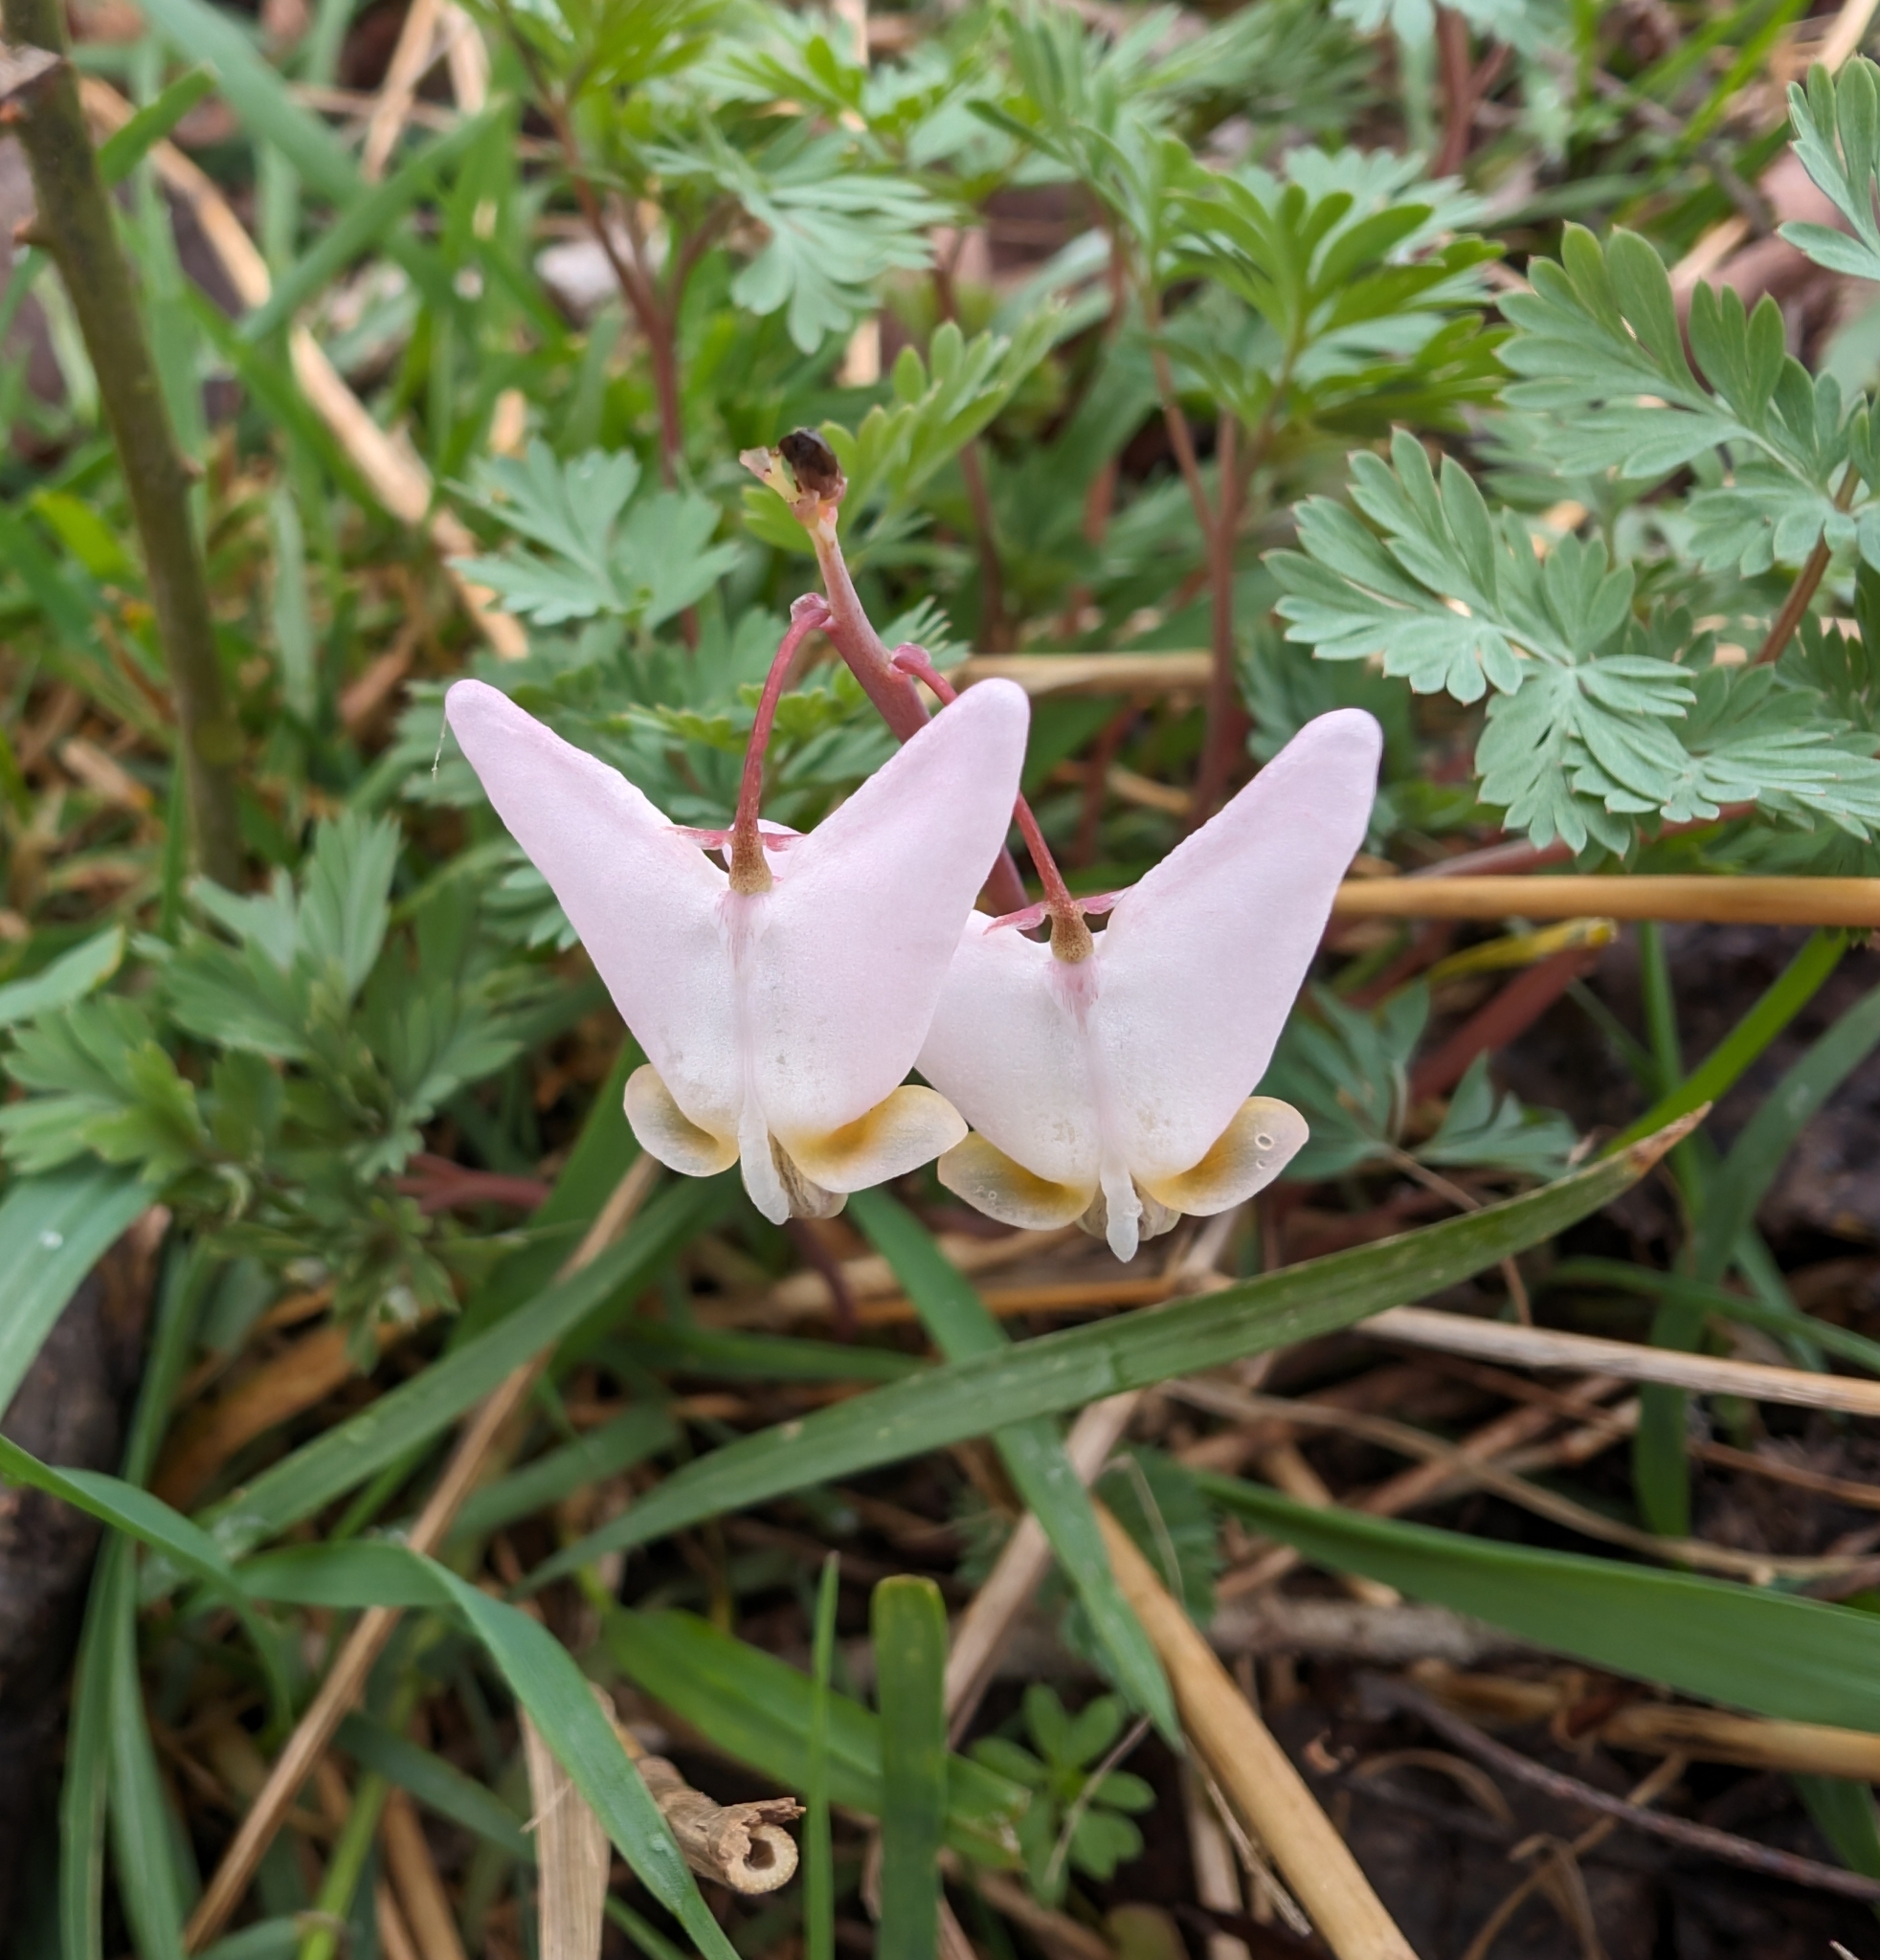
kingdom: Plantae
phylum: Tracheophyta
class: Magnoliopsida
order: Ranunculales
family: Papaveraceae
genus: Dicentra
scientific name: Dicentra cucullaria
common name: Dutchman's breeches
